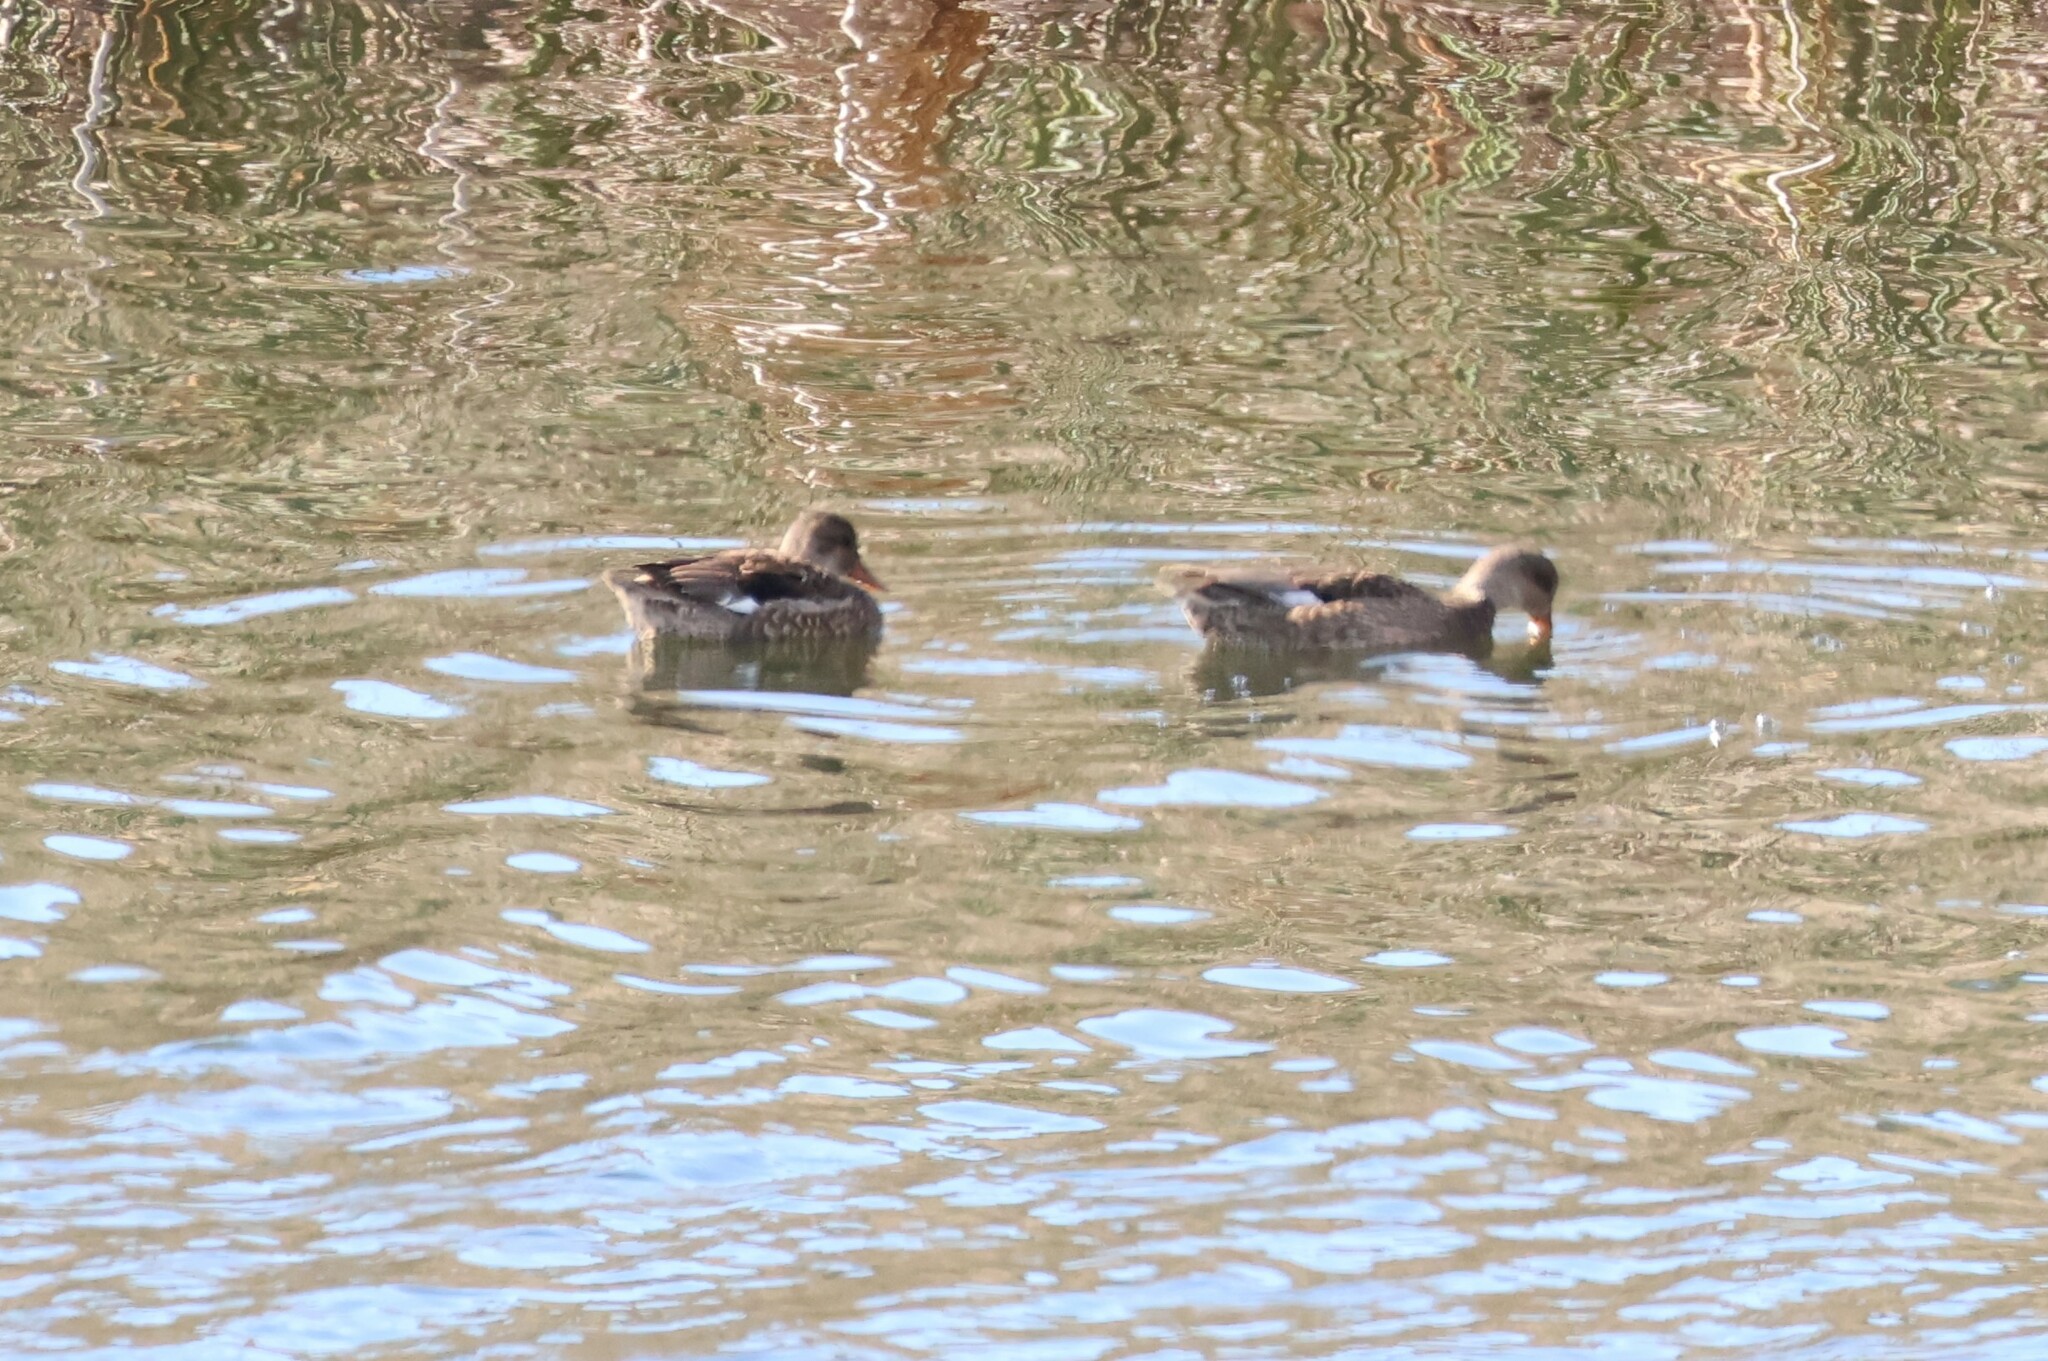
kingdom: Animalia
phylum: Chordata
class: Aves
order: Anseriformes
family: Anatidae
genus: Mareca
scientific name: Mareca strepera
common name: Gadwall
